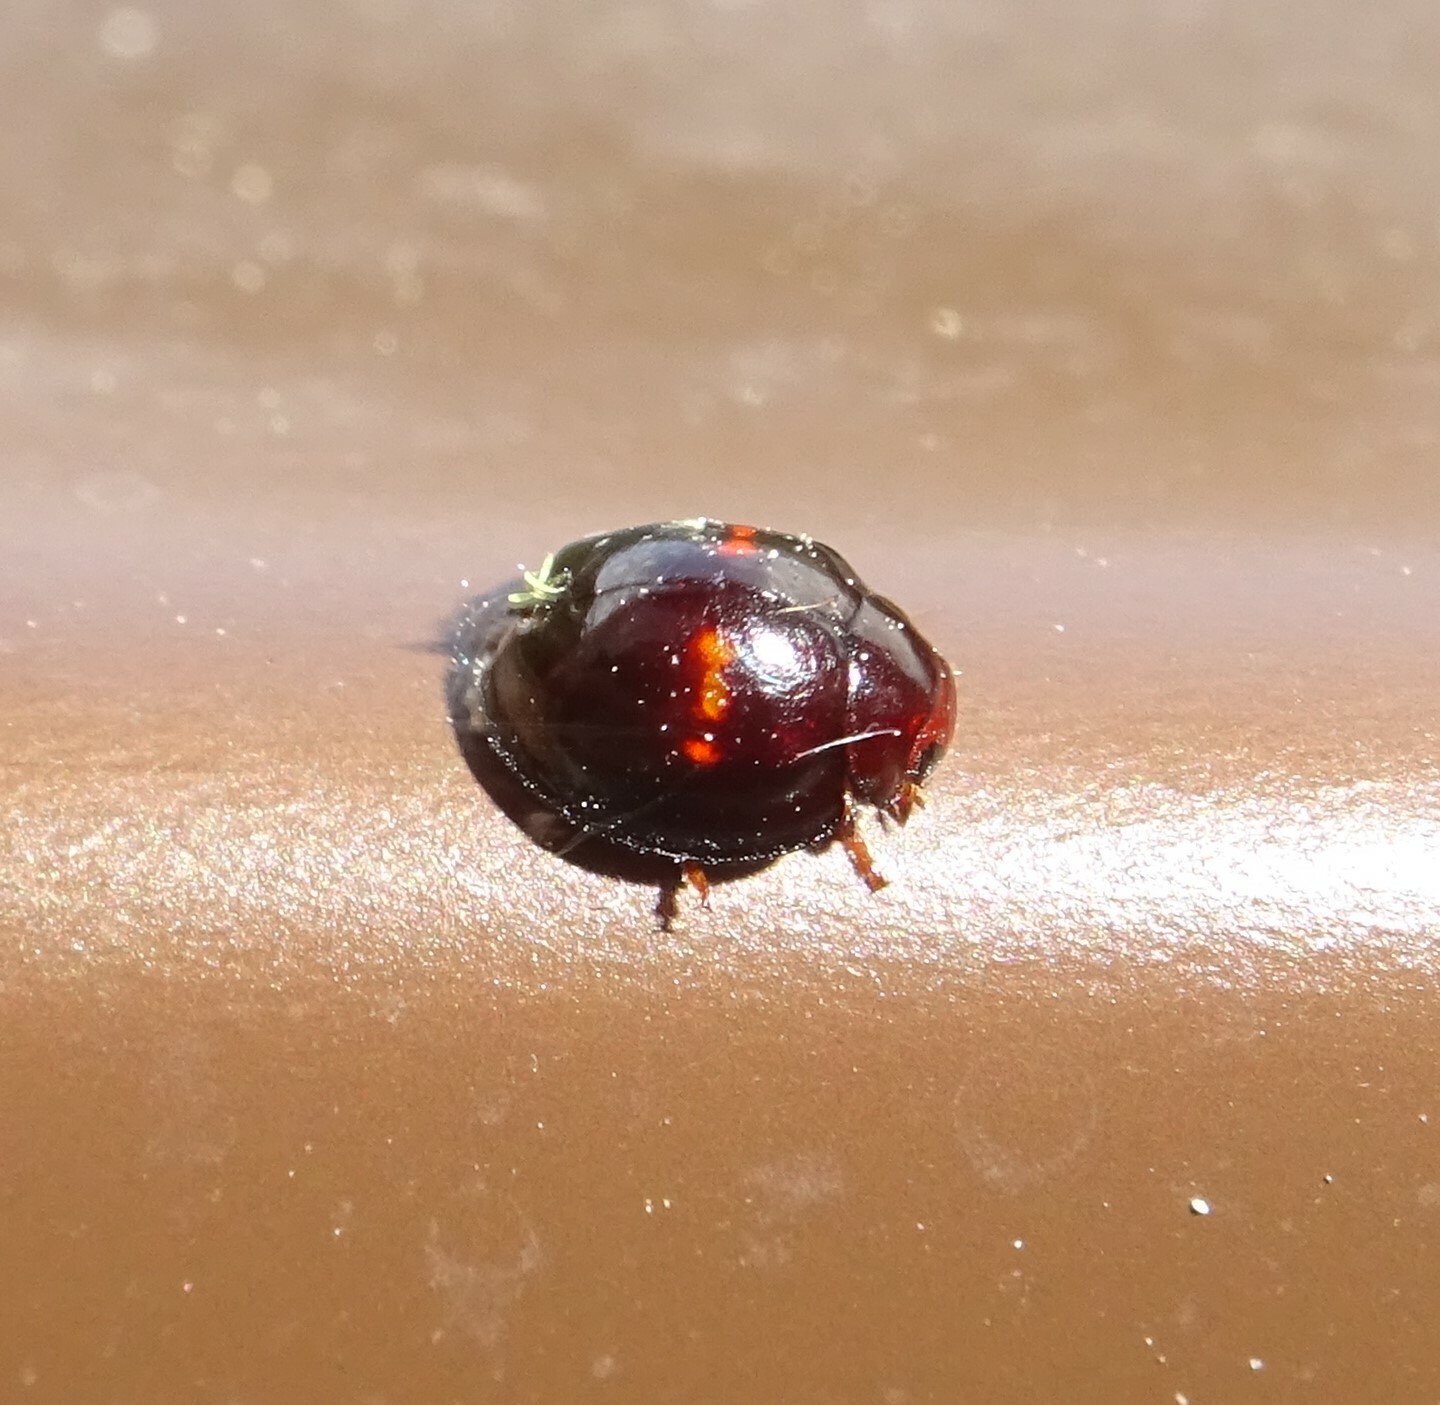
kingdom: Animalia
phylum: Arthropoda
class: Insecta
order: Coleoptera
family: Coccinellidae
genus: Chilocorus
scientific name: Chilocorus bipustulatus
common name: Heather ladybird
